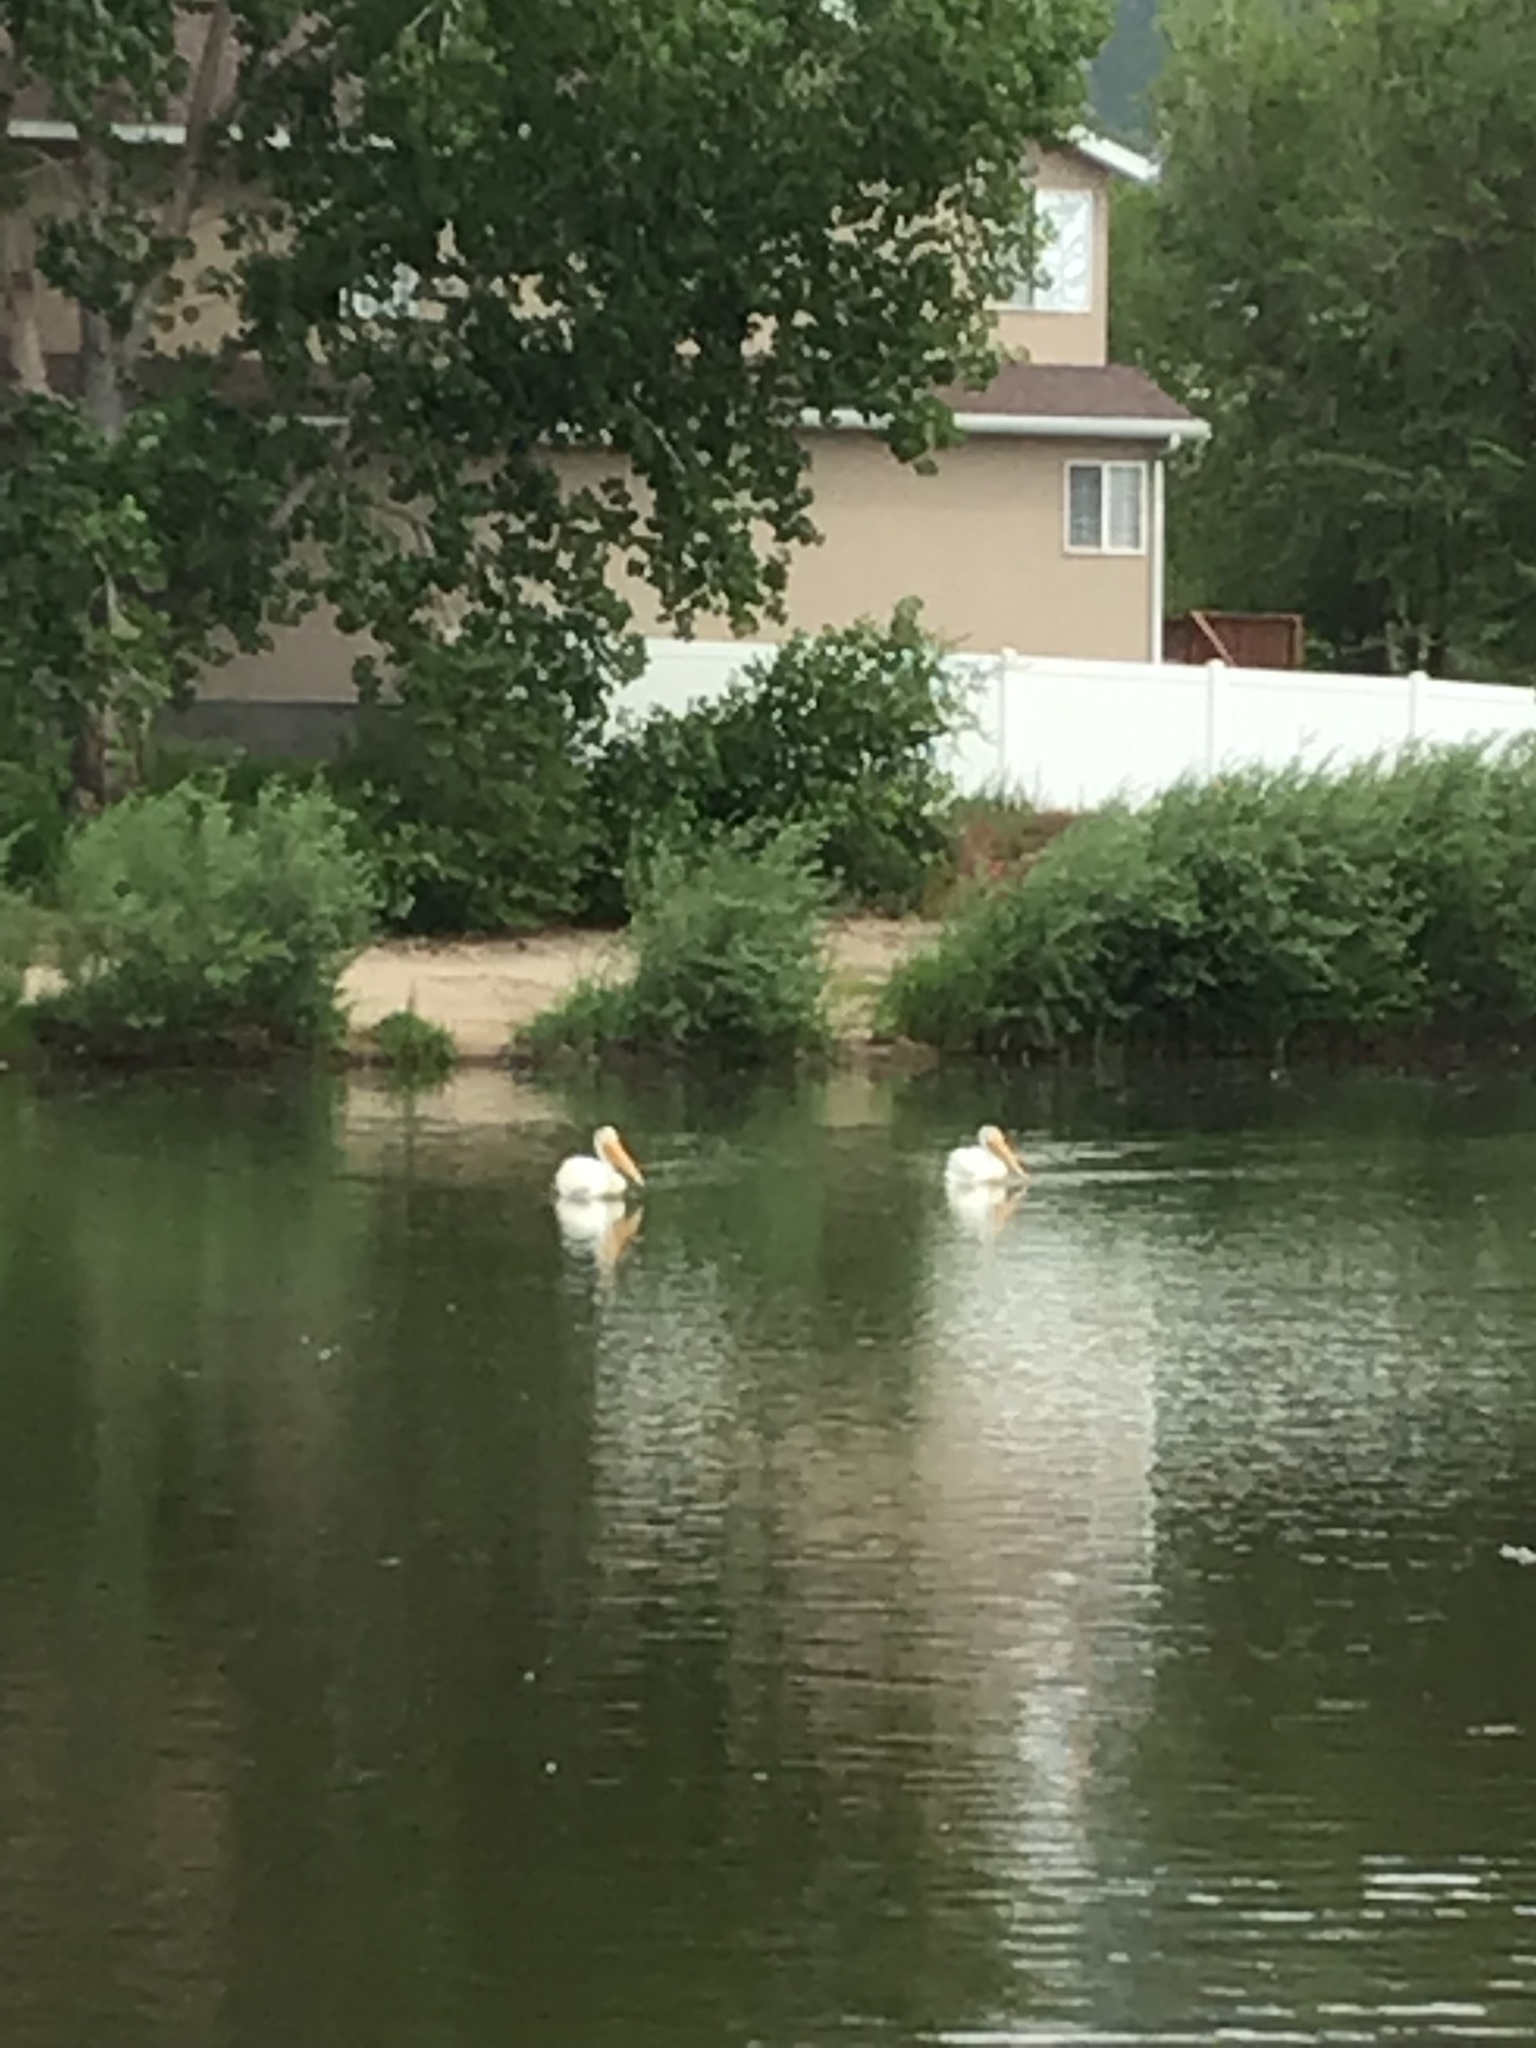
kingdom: Animalia
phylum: Chordata
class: Aves
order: Pelecaniformes
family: Pelecanidae
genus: Pelecanus
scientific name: Pelecanus erythrorhynchos
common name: American white pelican
